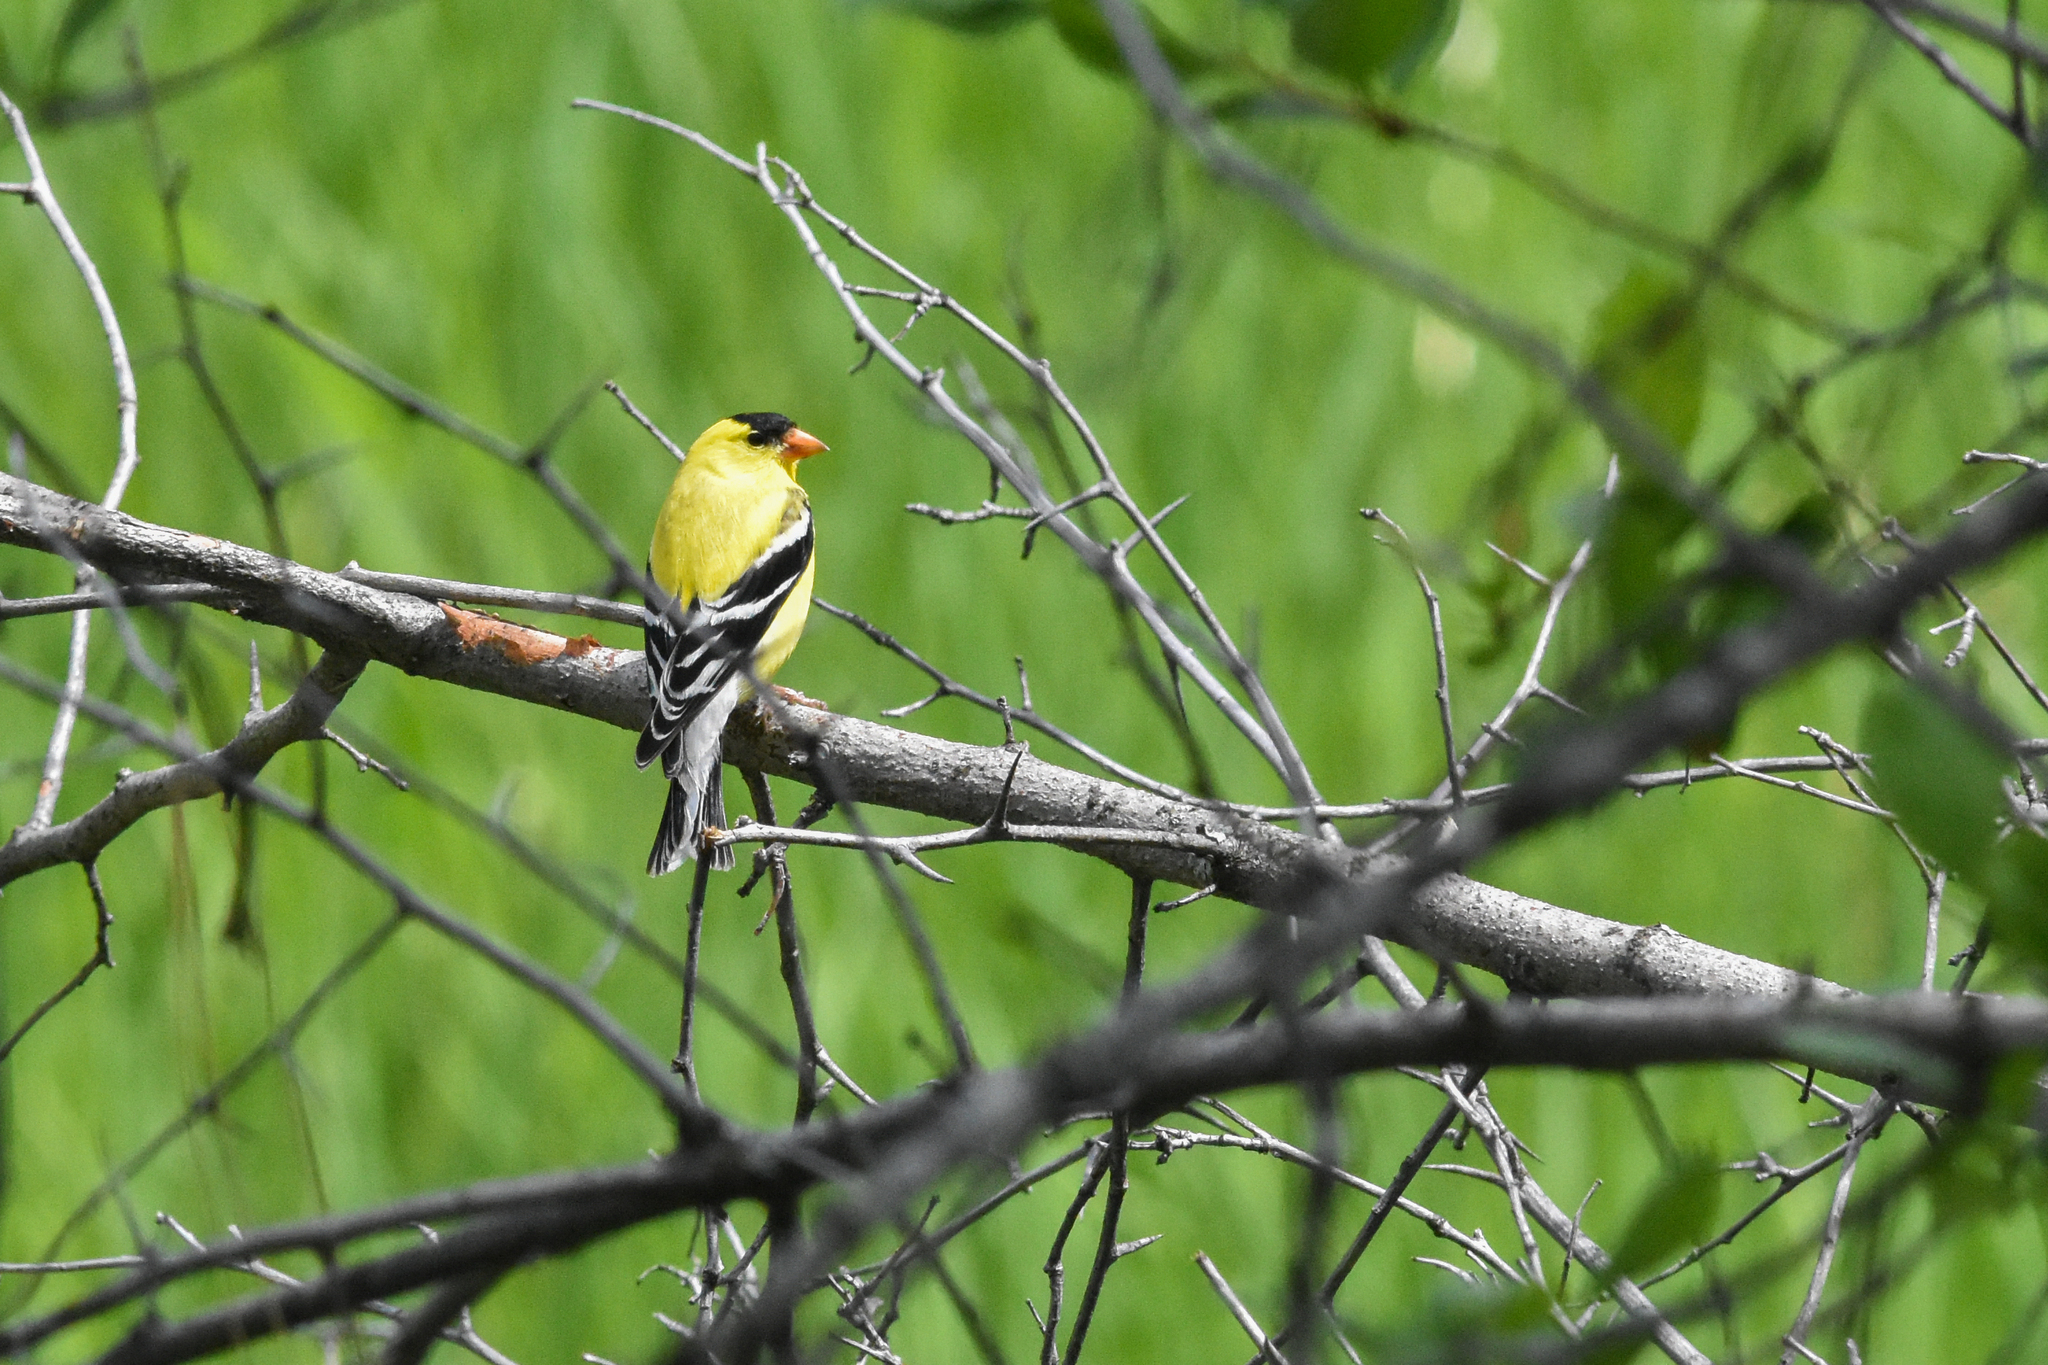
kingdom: Animalia
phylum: Chordata
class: Aves
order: Passeriformes
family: Fringillidae
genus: Spinus
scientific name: Spinus tristis
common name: American goldfinch
